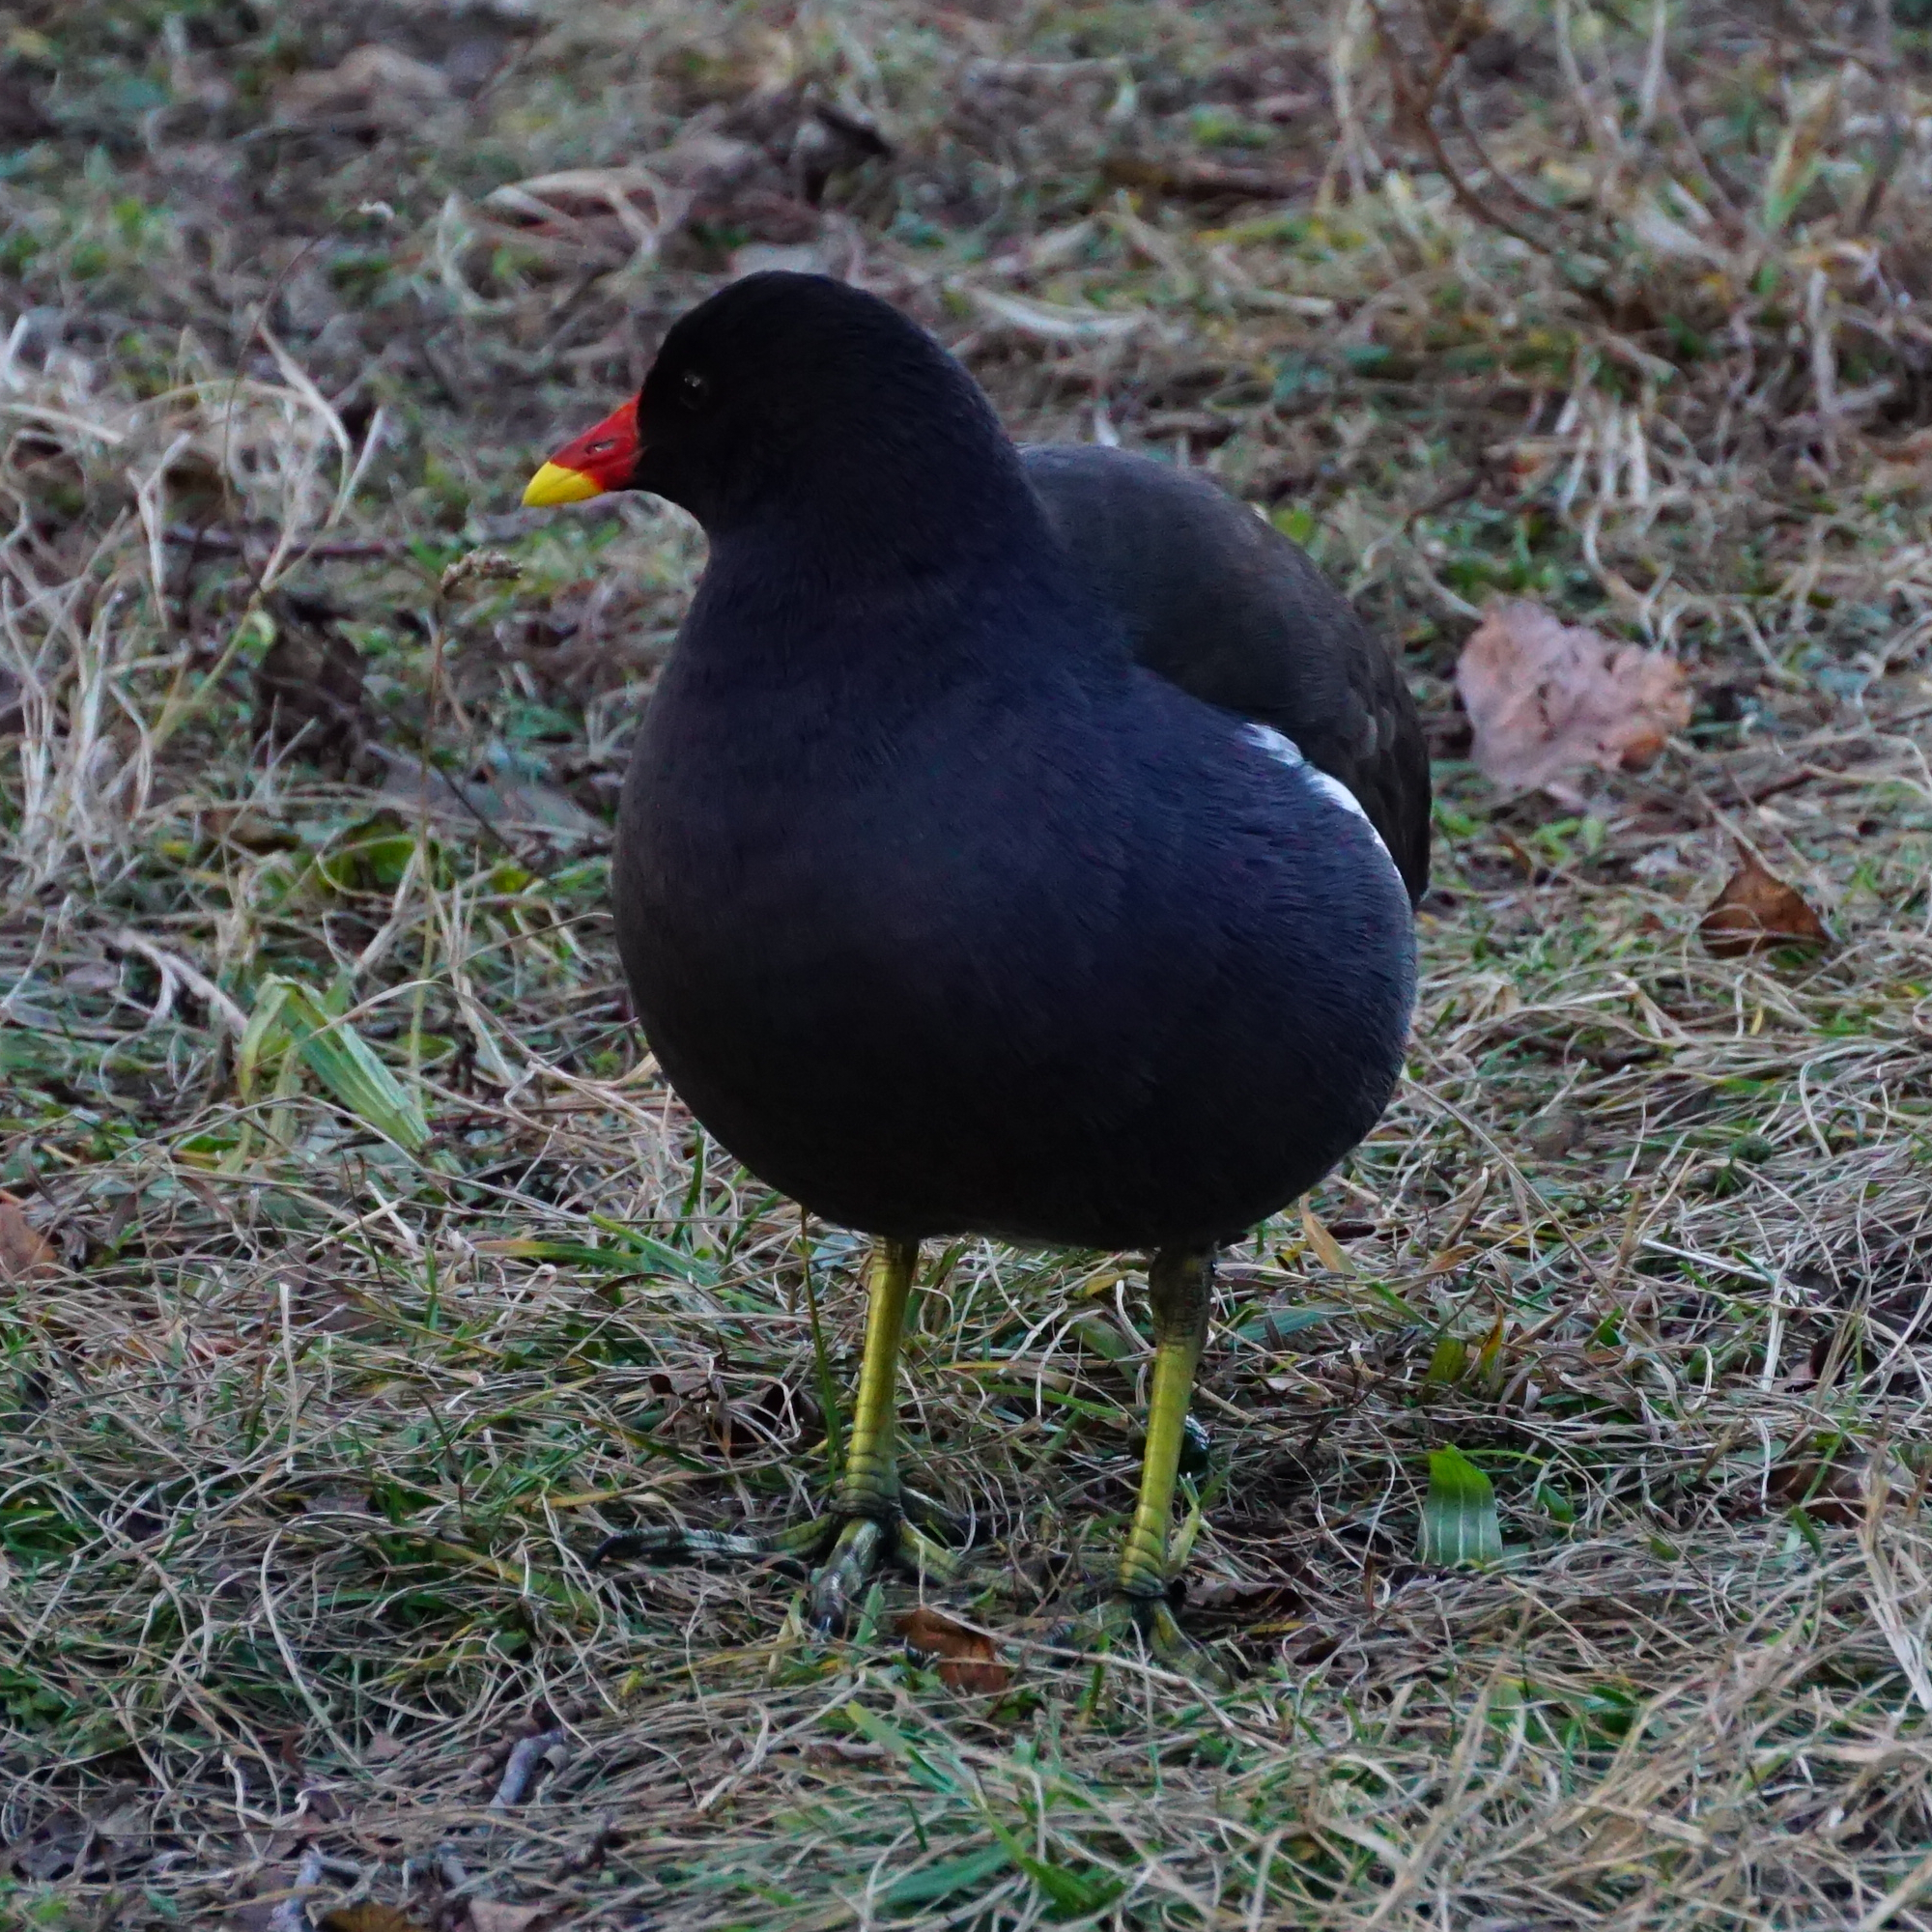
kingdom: Animalia
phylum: Chordata
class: Aves
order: Gruiformes
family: Rallidae
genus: Gallinula
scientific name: Gallinula chloropus
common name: Common moorhen
